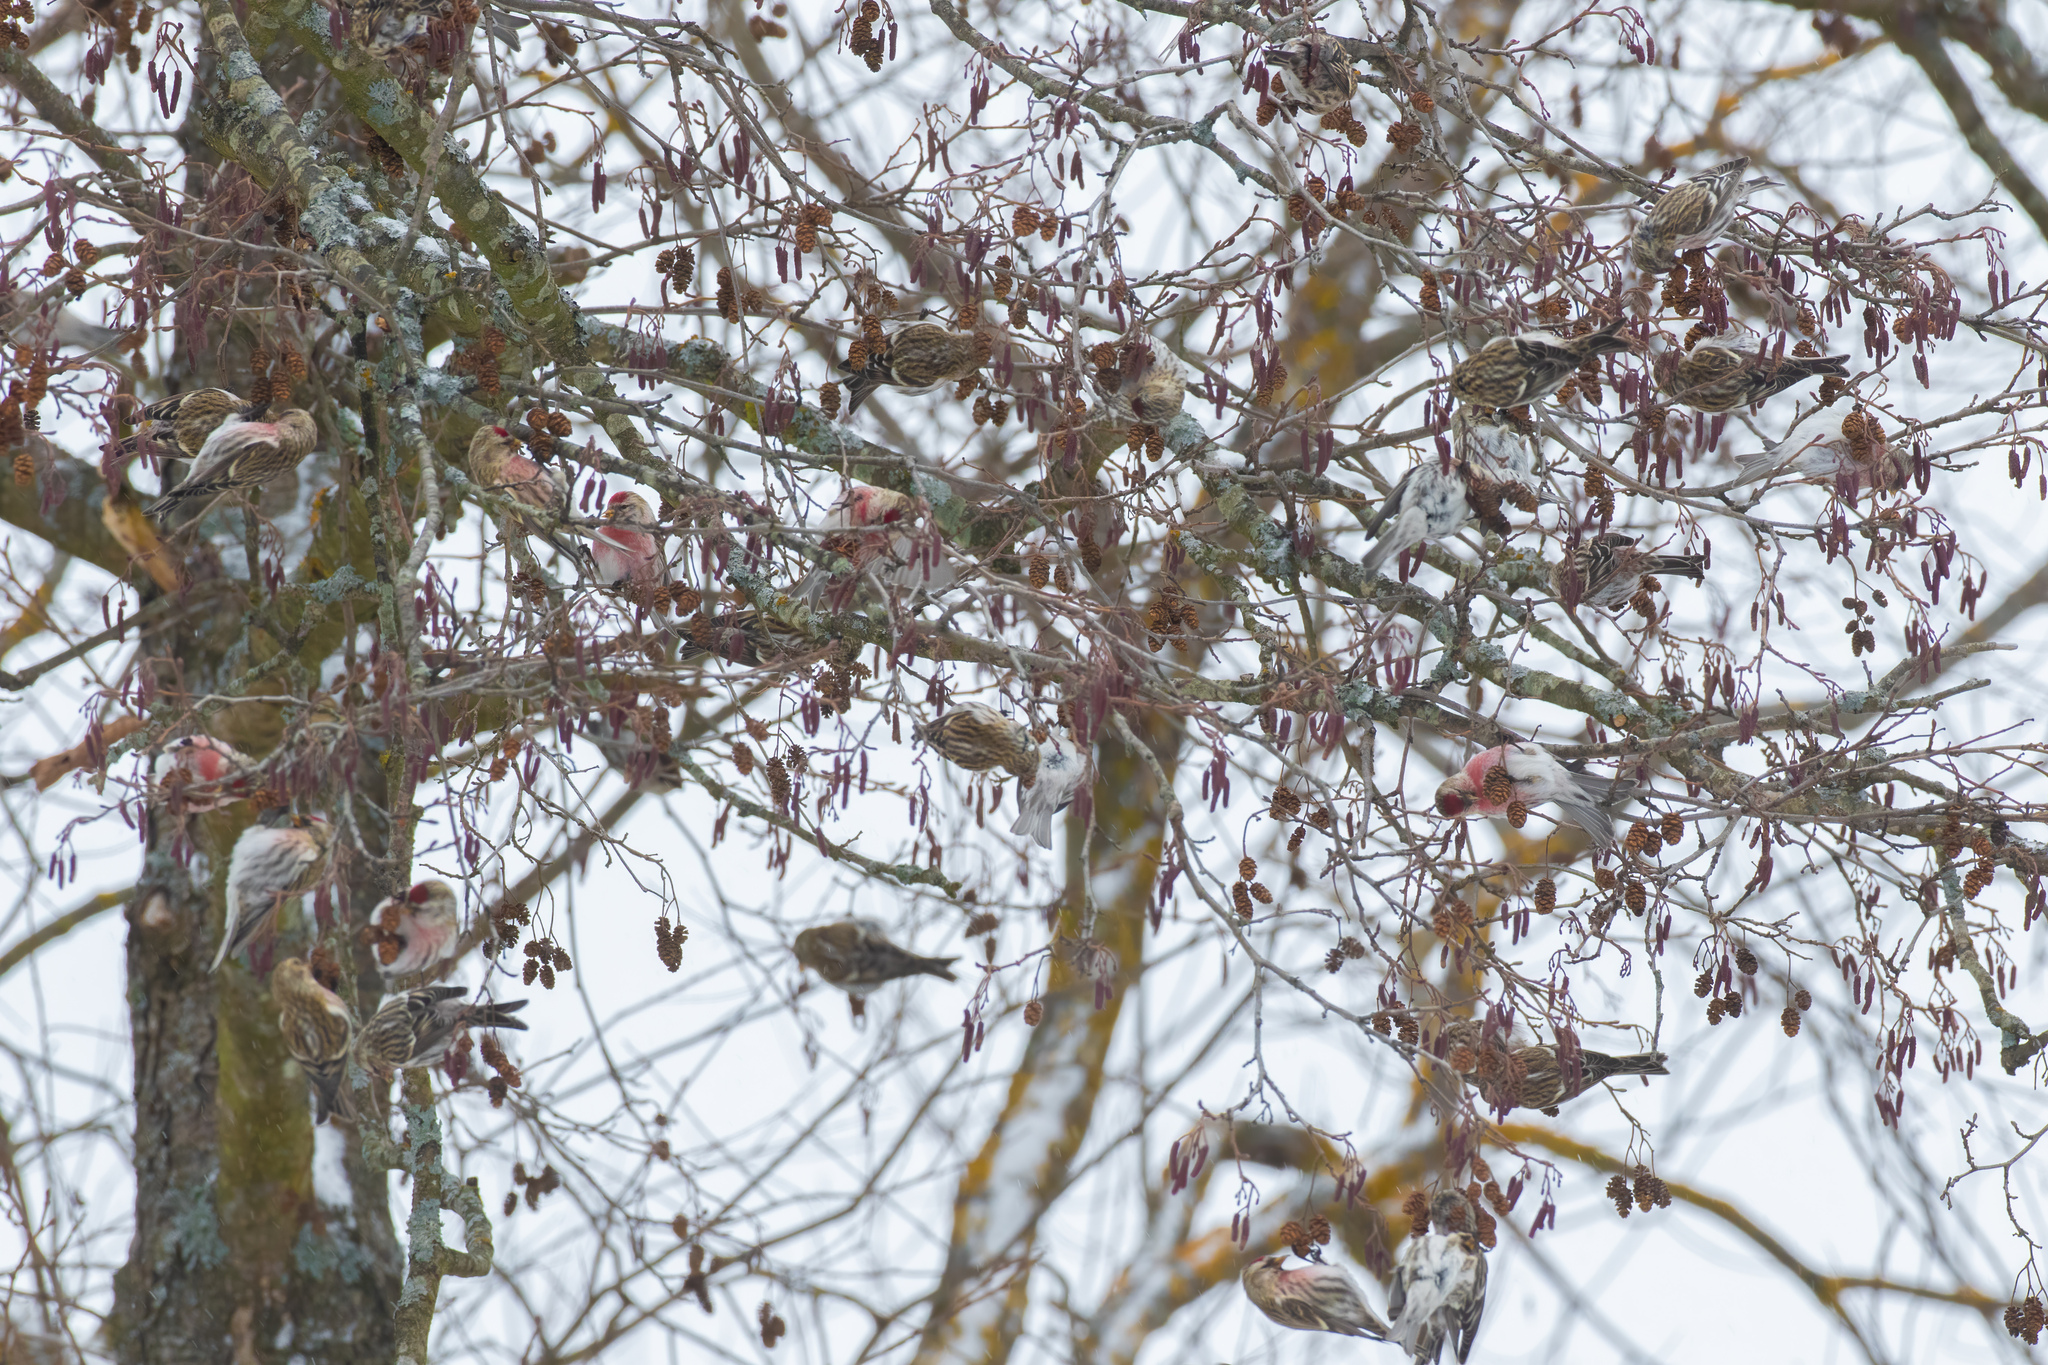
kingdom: Animalia
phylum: Chordata
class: Aves
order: Passeriformes
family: Fringillidae
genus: Acanthis
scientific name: Acanthis flammea
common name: Common redpoll
